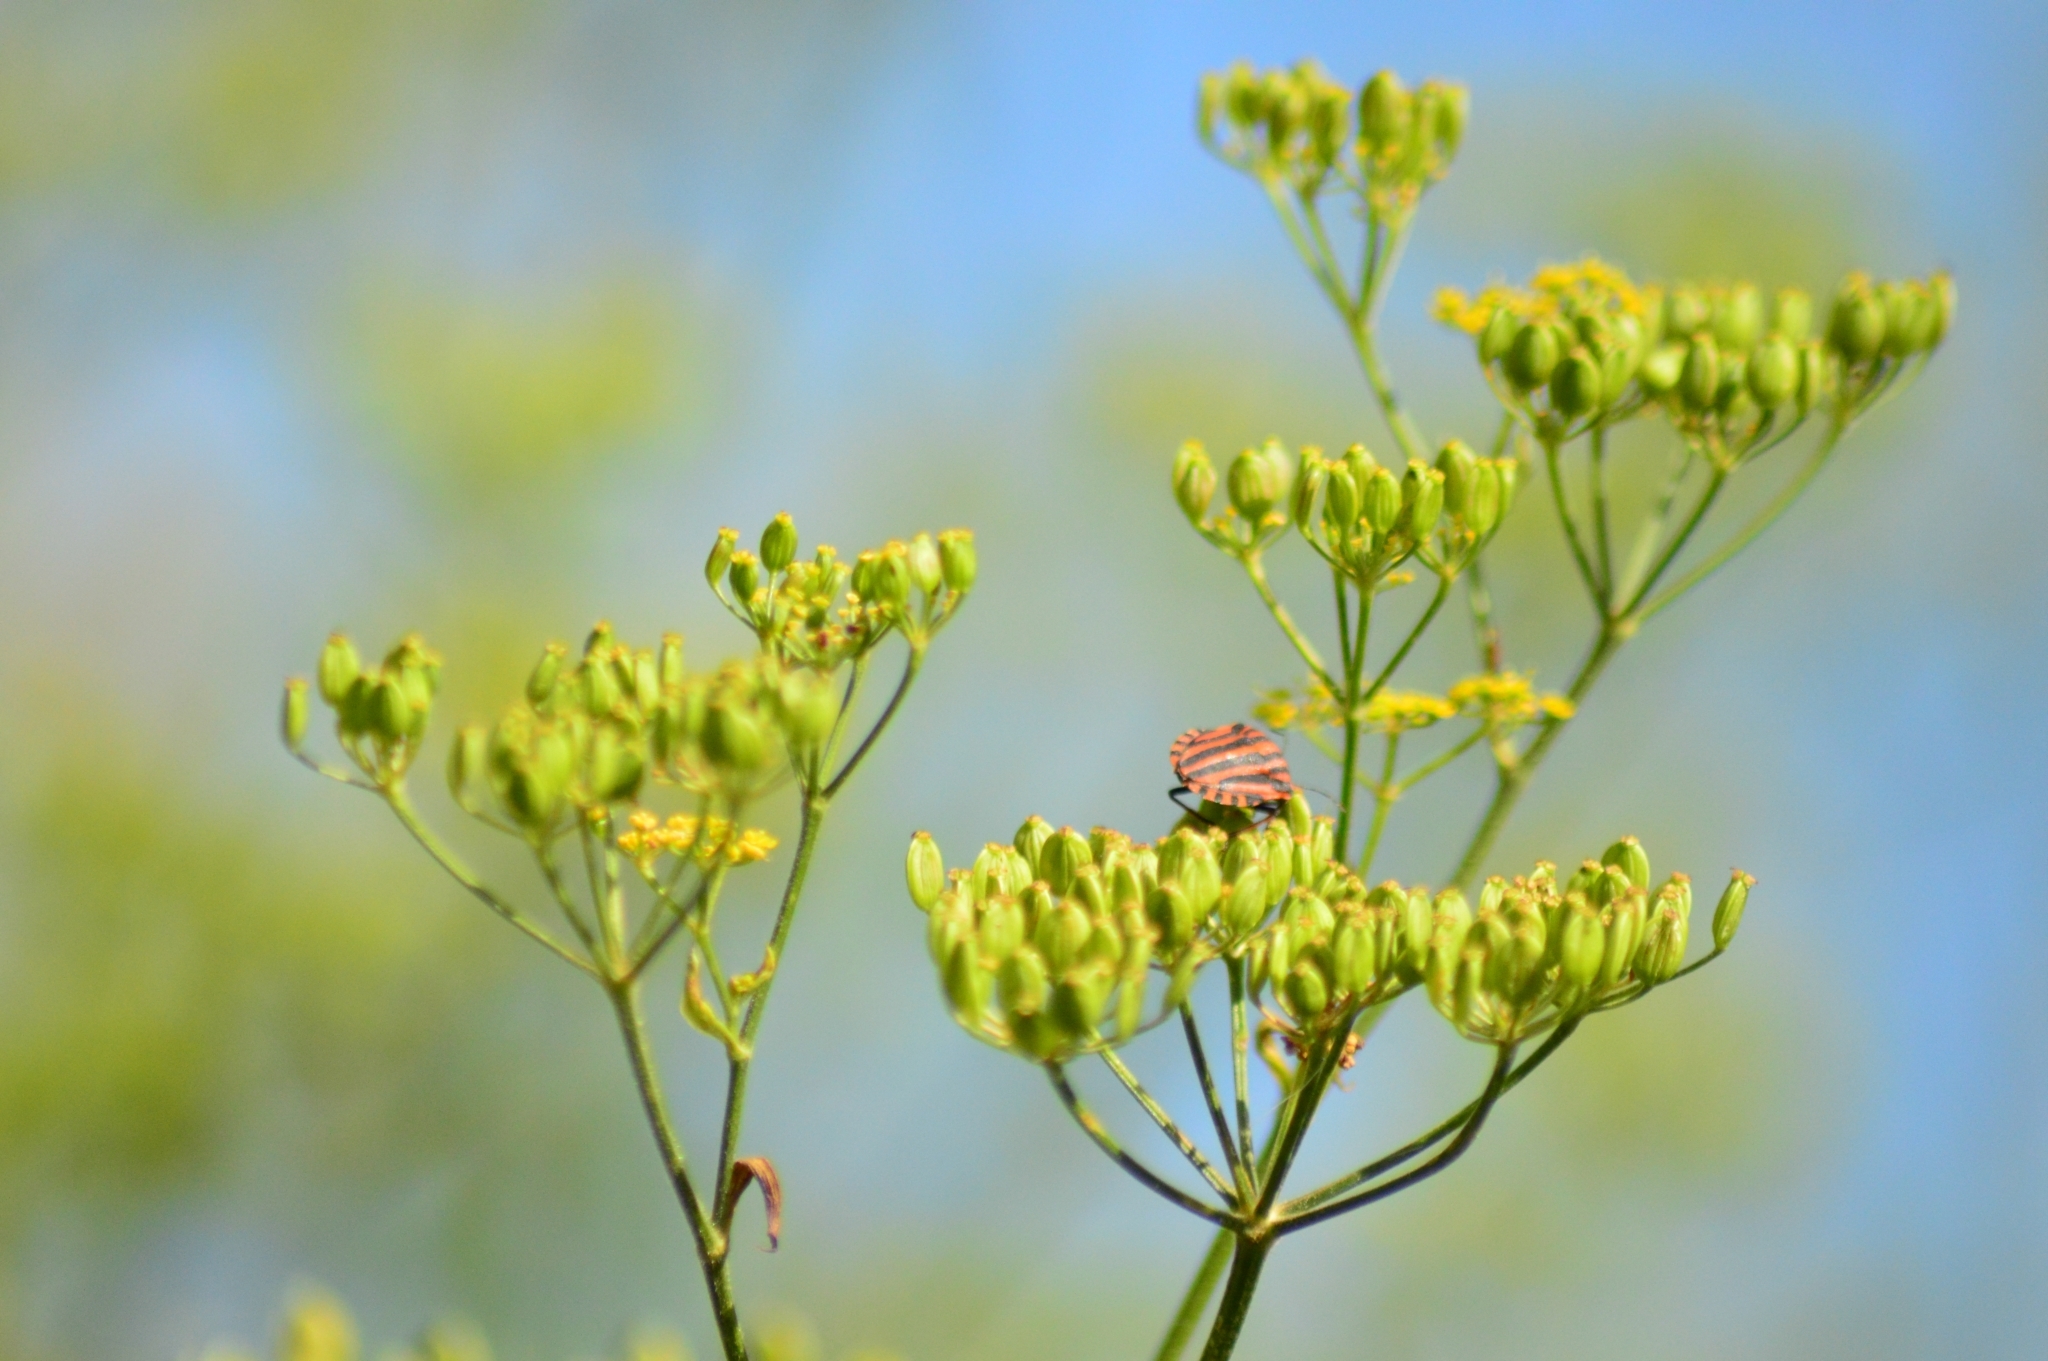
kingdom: Animalia
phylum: Arthropoda
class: Insecta
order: Hemiptera
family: Pentatomidae
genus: Graphosoma
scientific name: Graphosoma italicum
